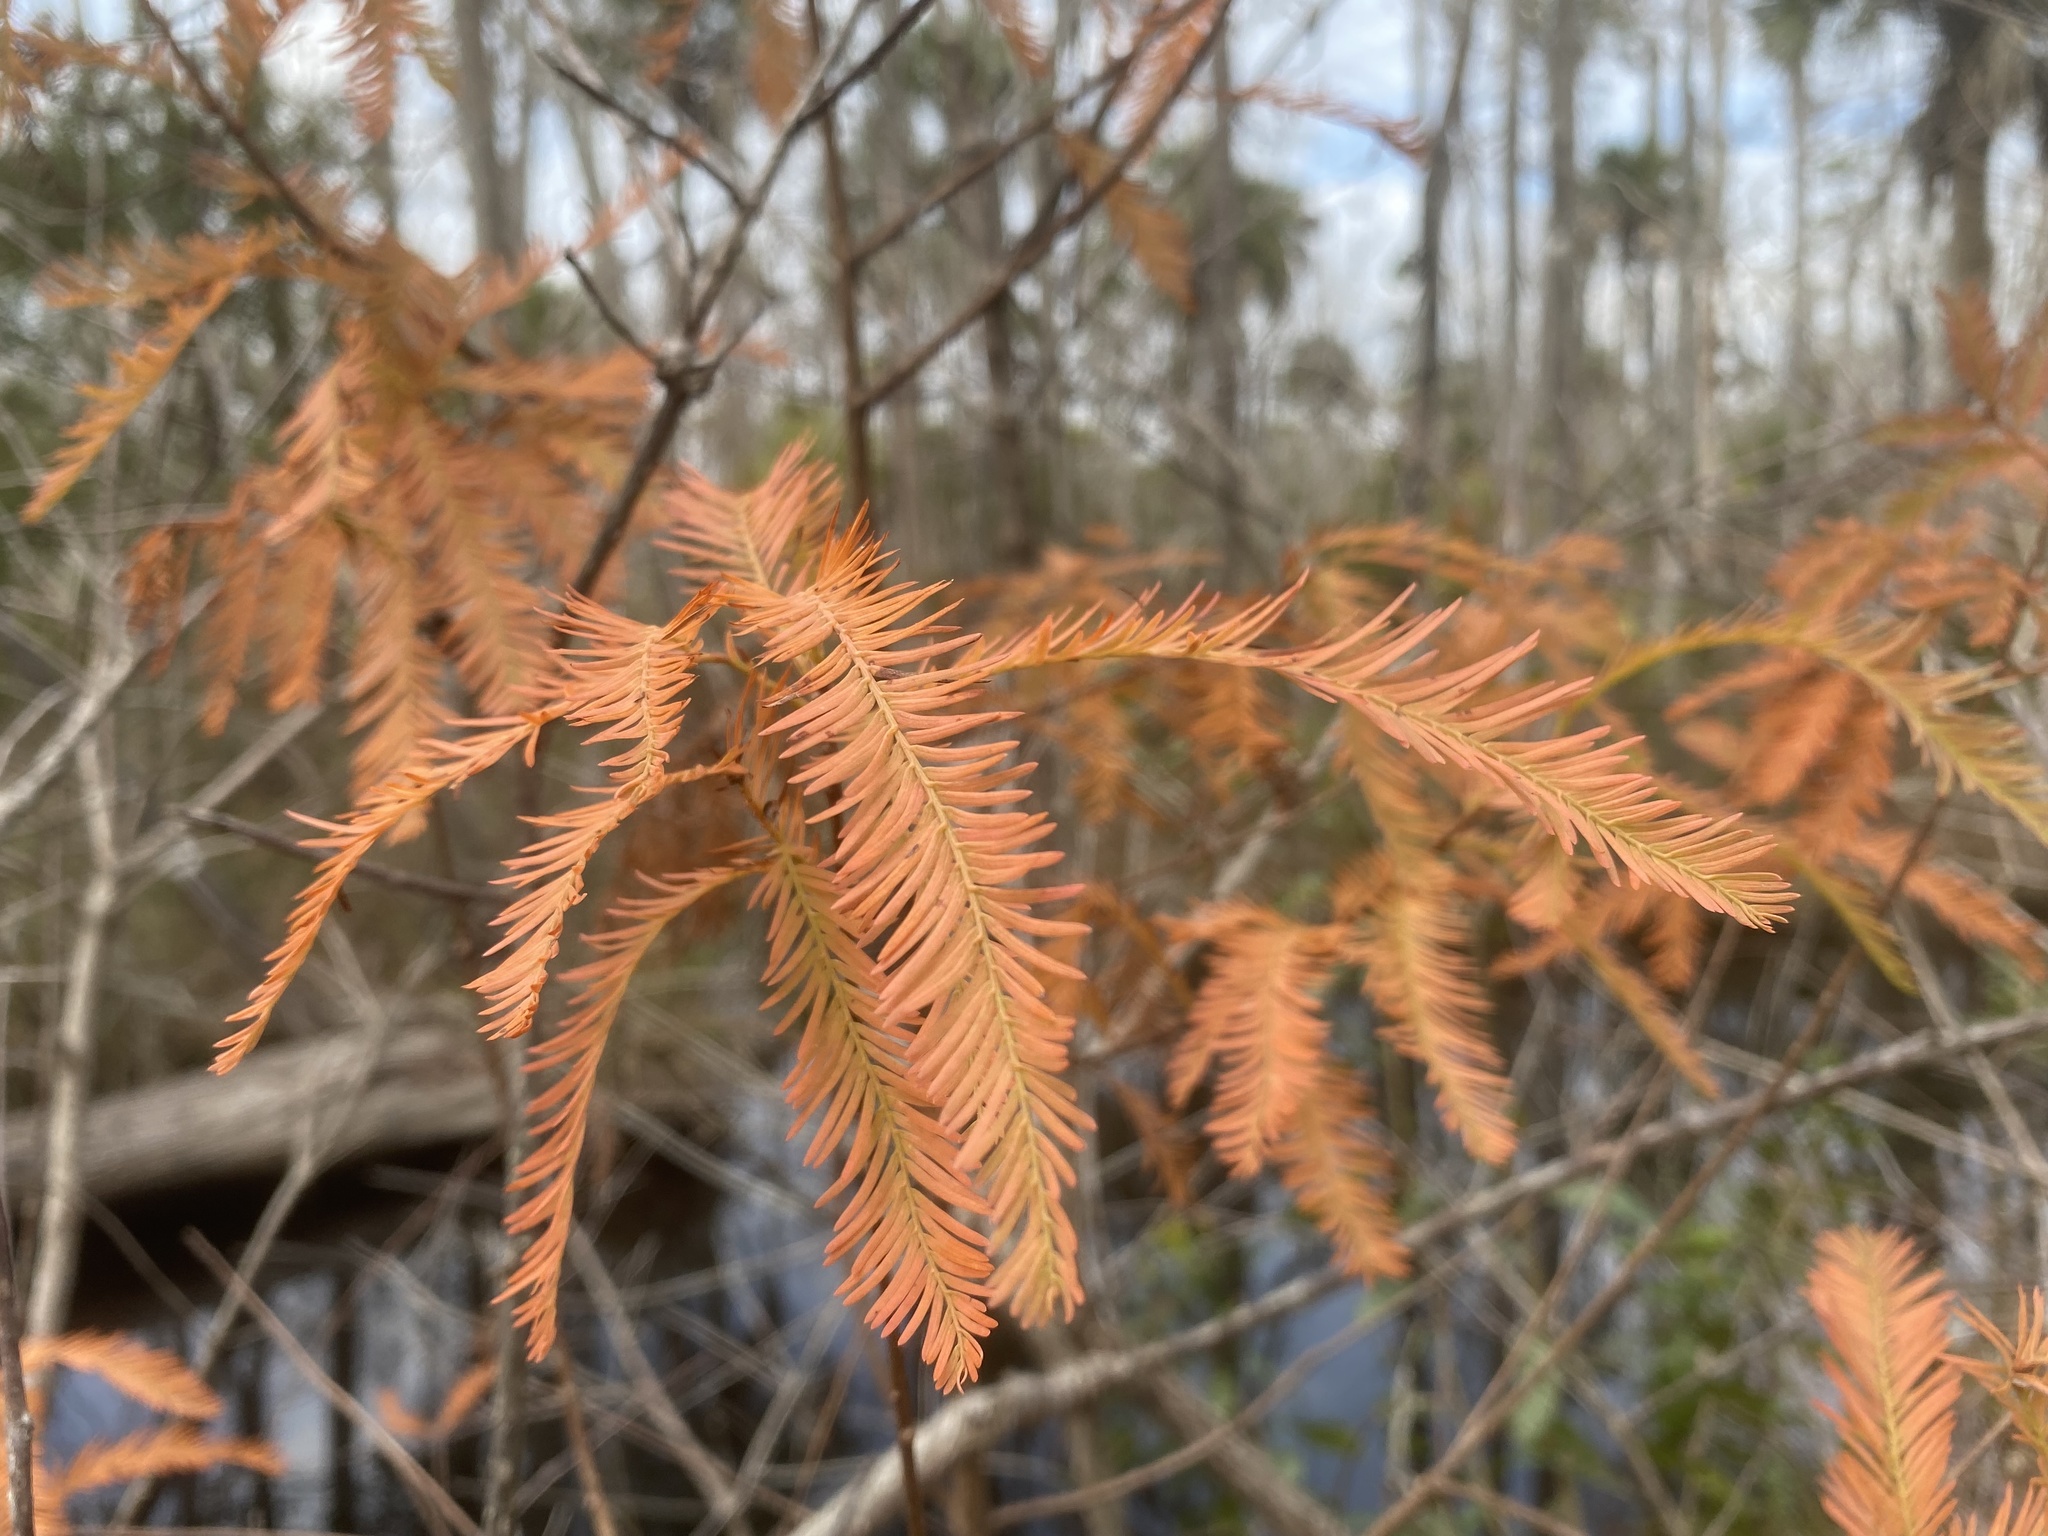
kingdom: Plantae
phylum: Tracheophyta
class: Pinopsida
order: Pinales
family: Cupressaceae
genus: Taxodium
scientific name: Taxodium distichum
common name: Bald cypress
